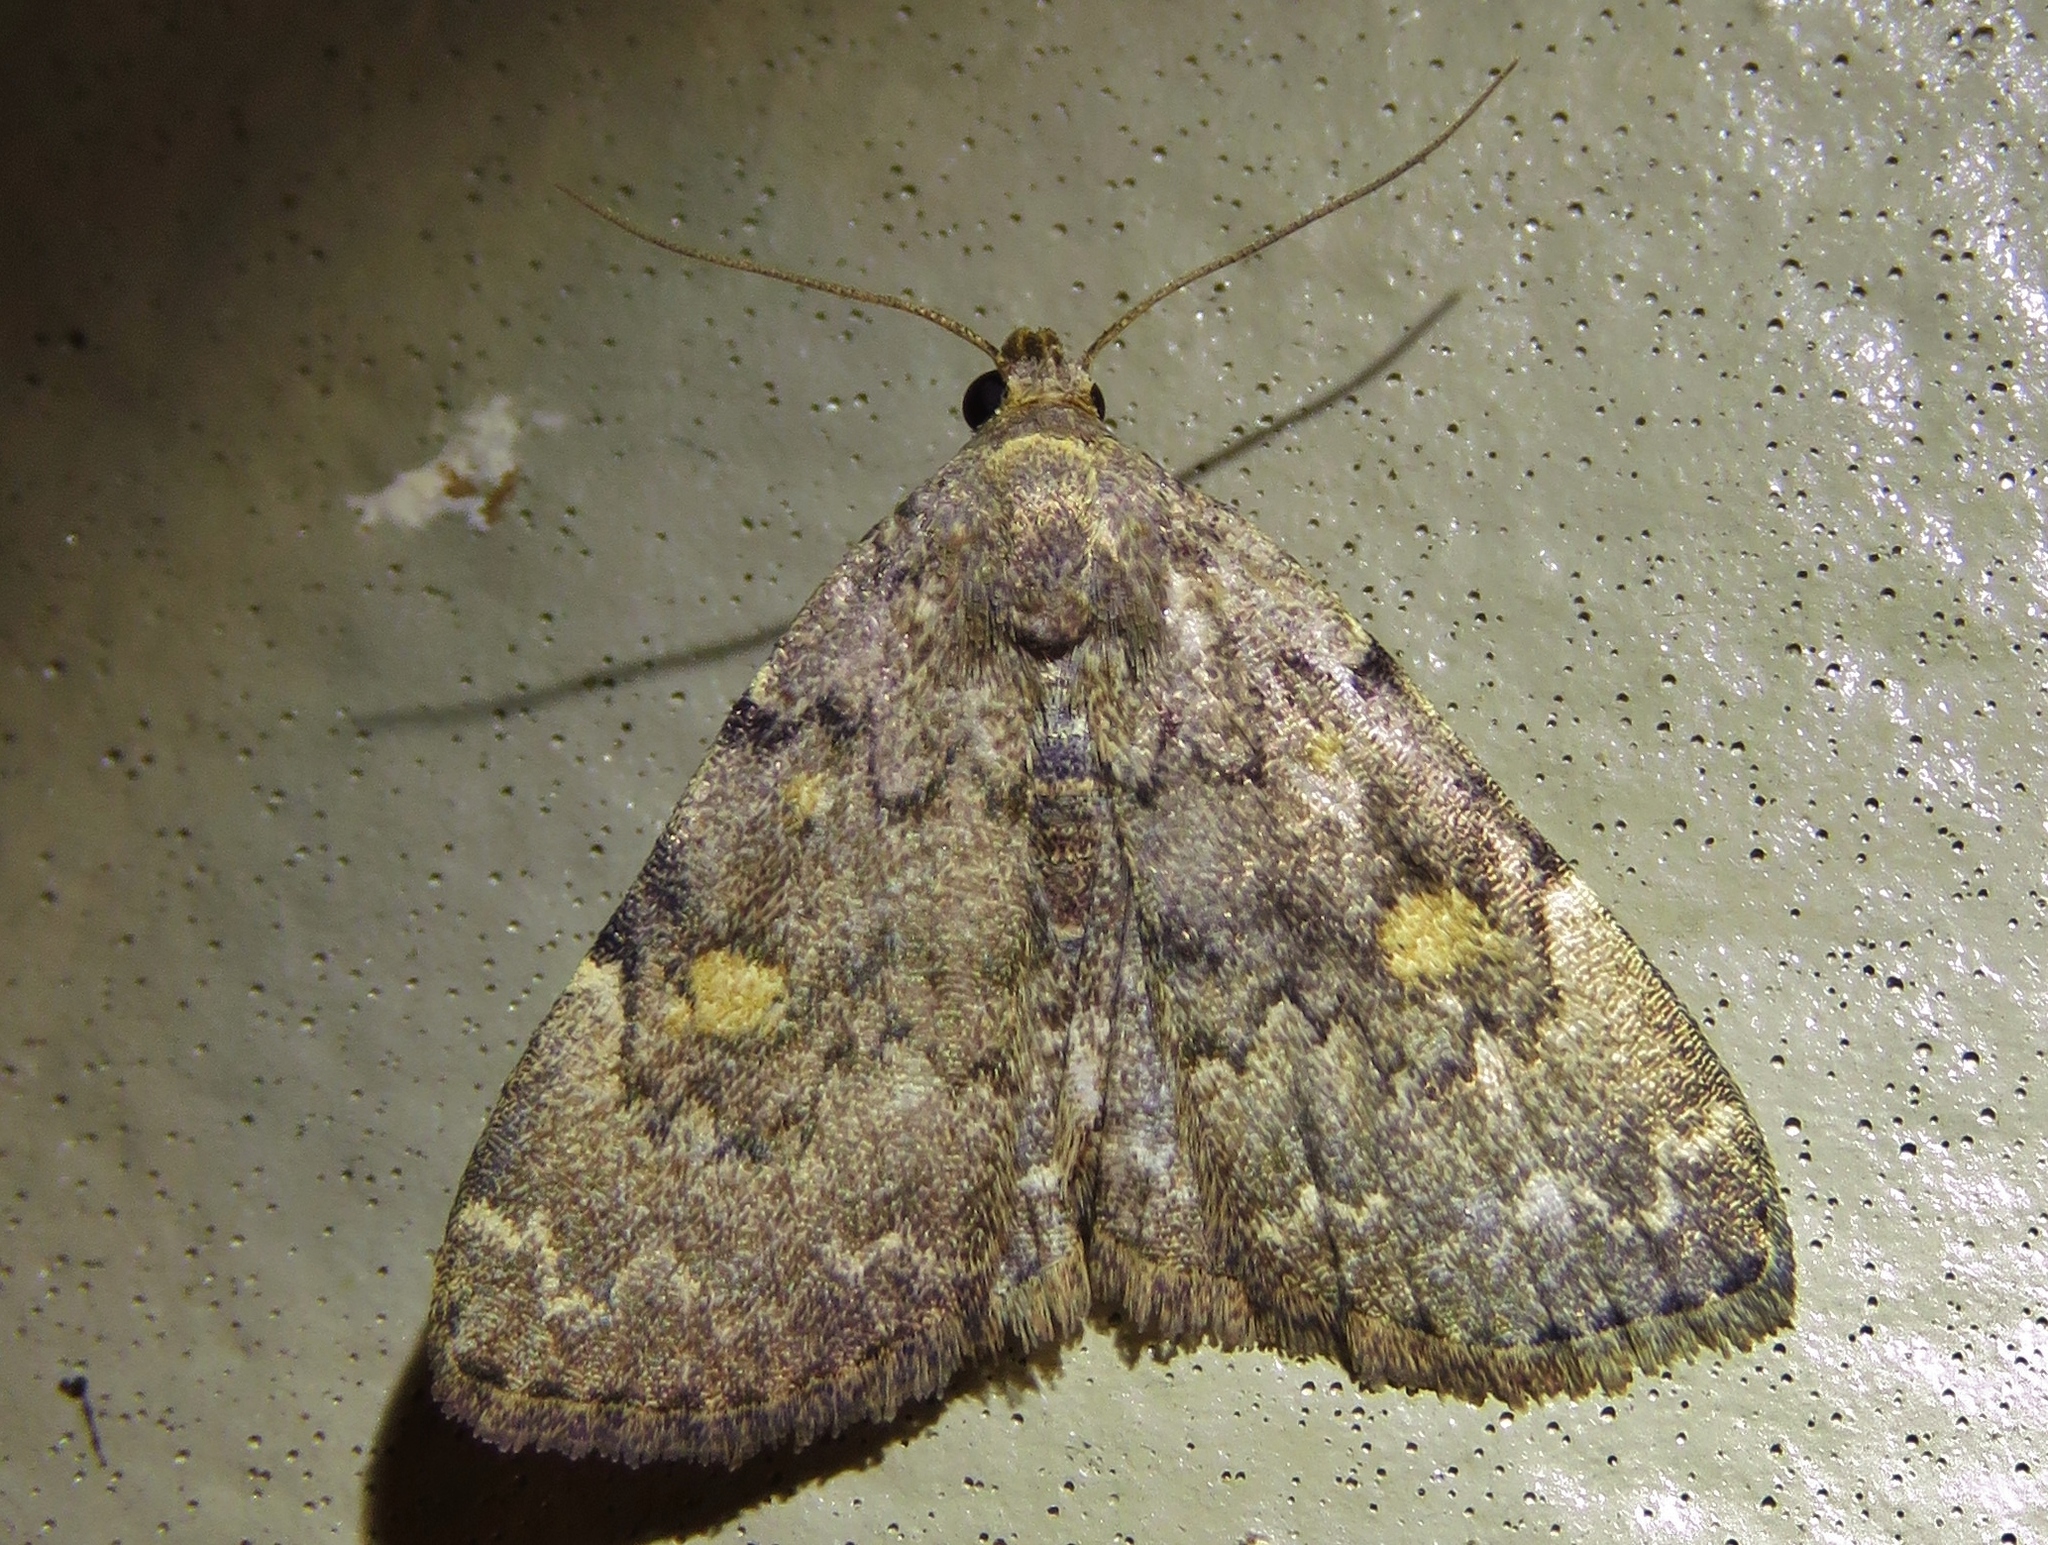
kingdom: Animalia
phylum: Arthropoda
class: Insecta
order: Lepidoptera
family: Erebidae
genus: Idia
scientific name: Idia aemula
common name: Common idia moth
